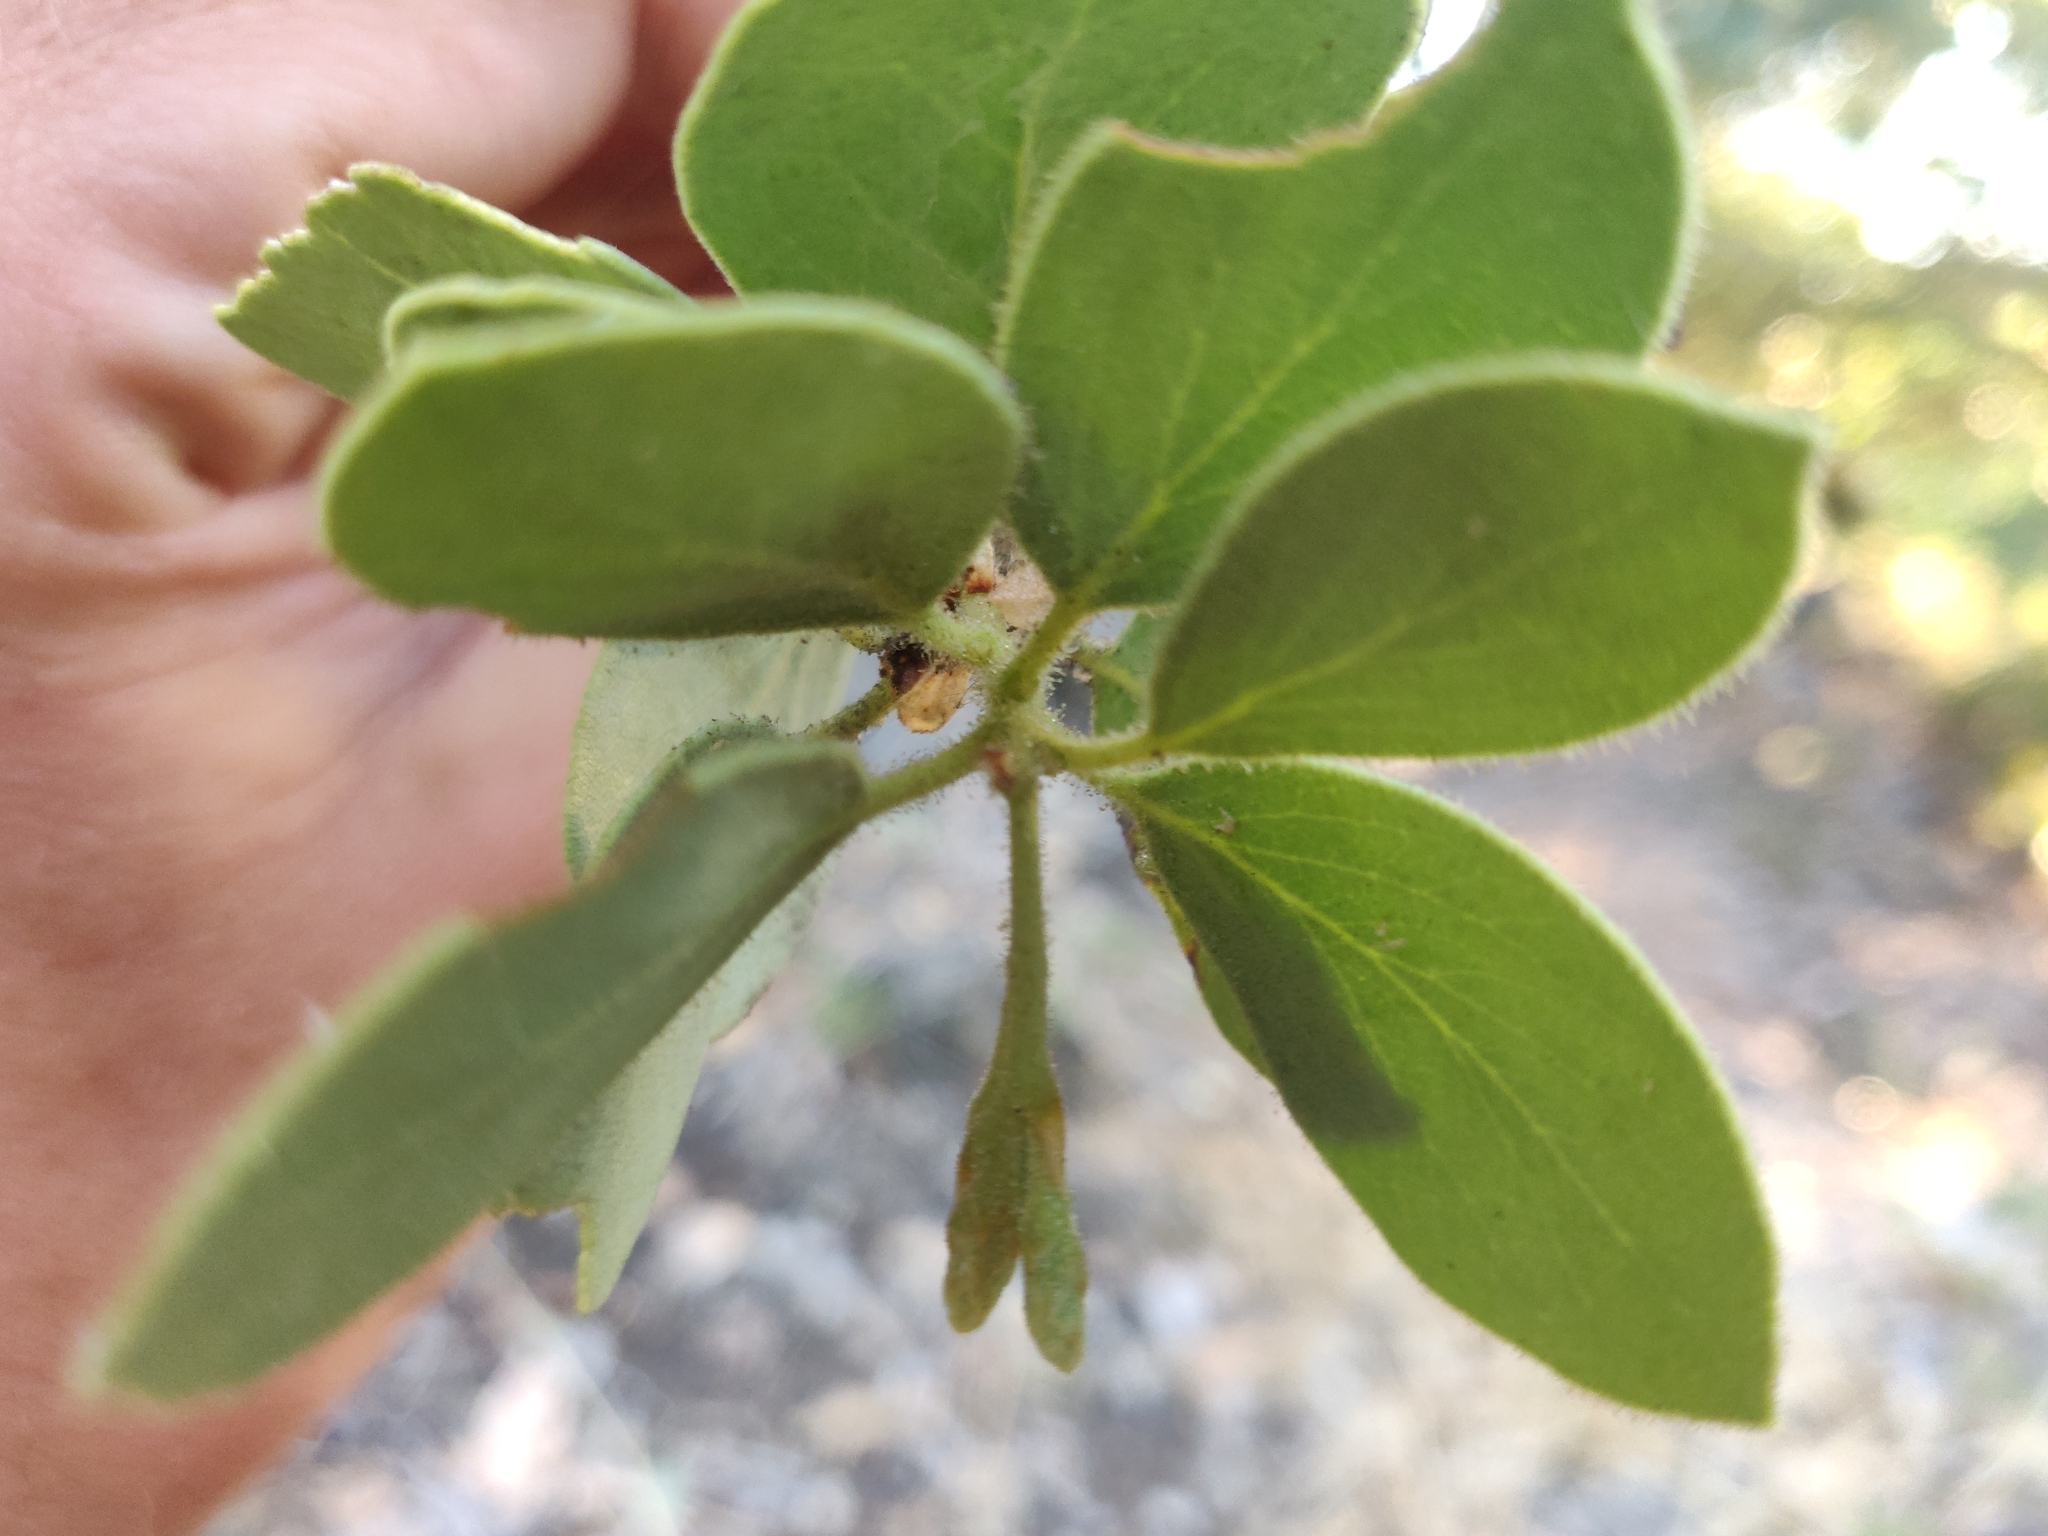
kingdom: Plantae
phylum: Tracheophyta
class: Magnoliopsida
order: Ericales
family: Ericaceae
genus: Arctostaphylos
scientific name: Arctostaphylos viscida
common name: White-leaf manzanita
